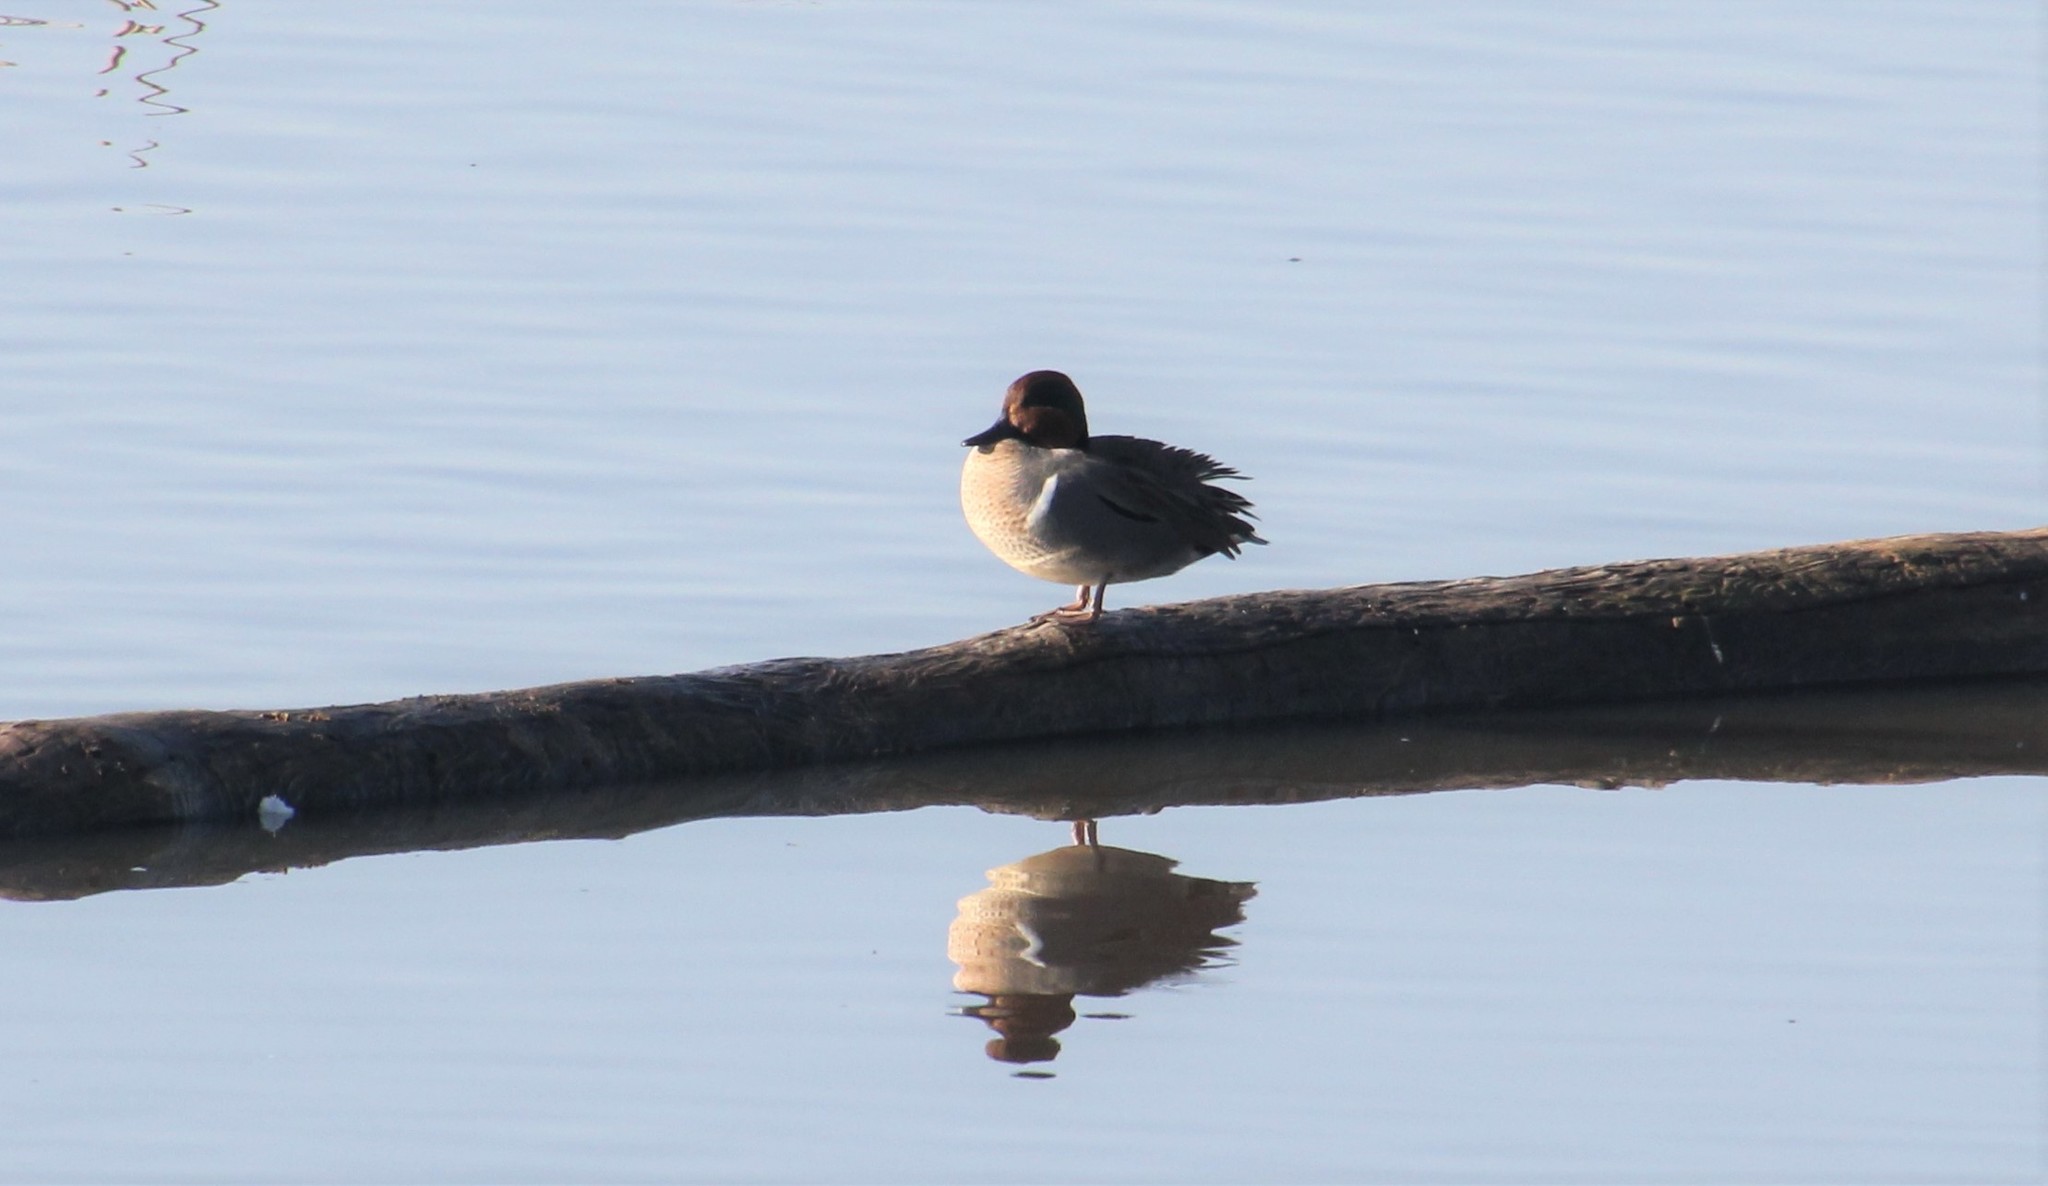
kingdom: Animalia
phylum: Chordata
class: Aves
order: Anseriformes
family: Anatidae
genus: Anas
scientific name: Anas crecca
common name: Eurasian teal
